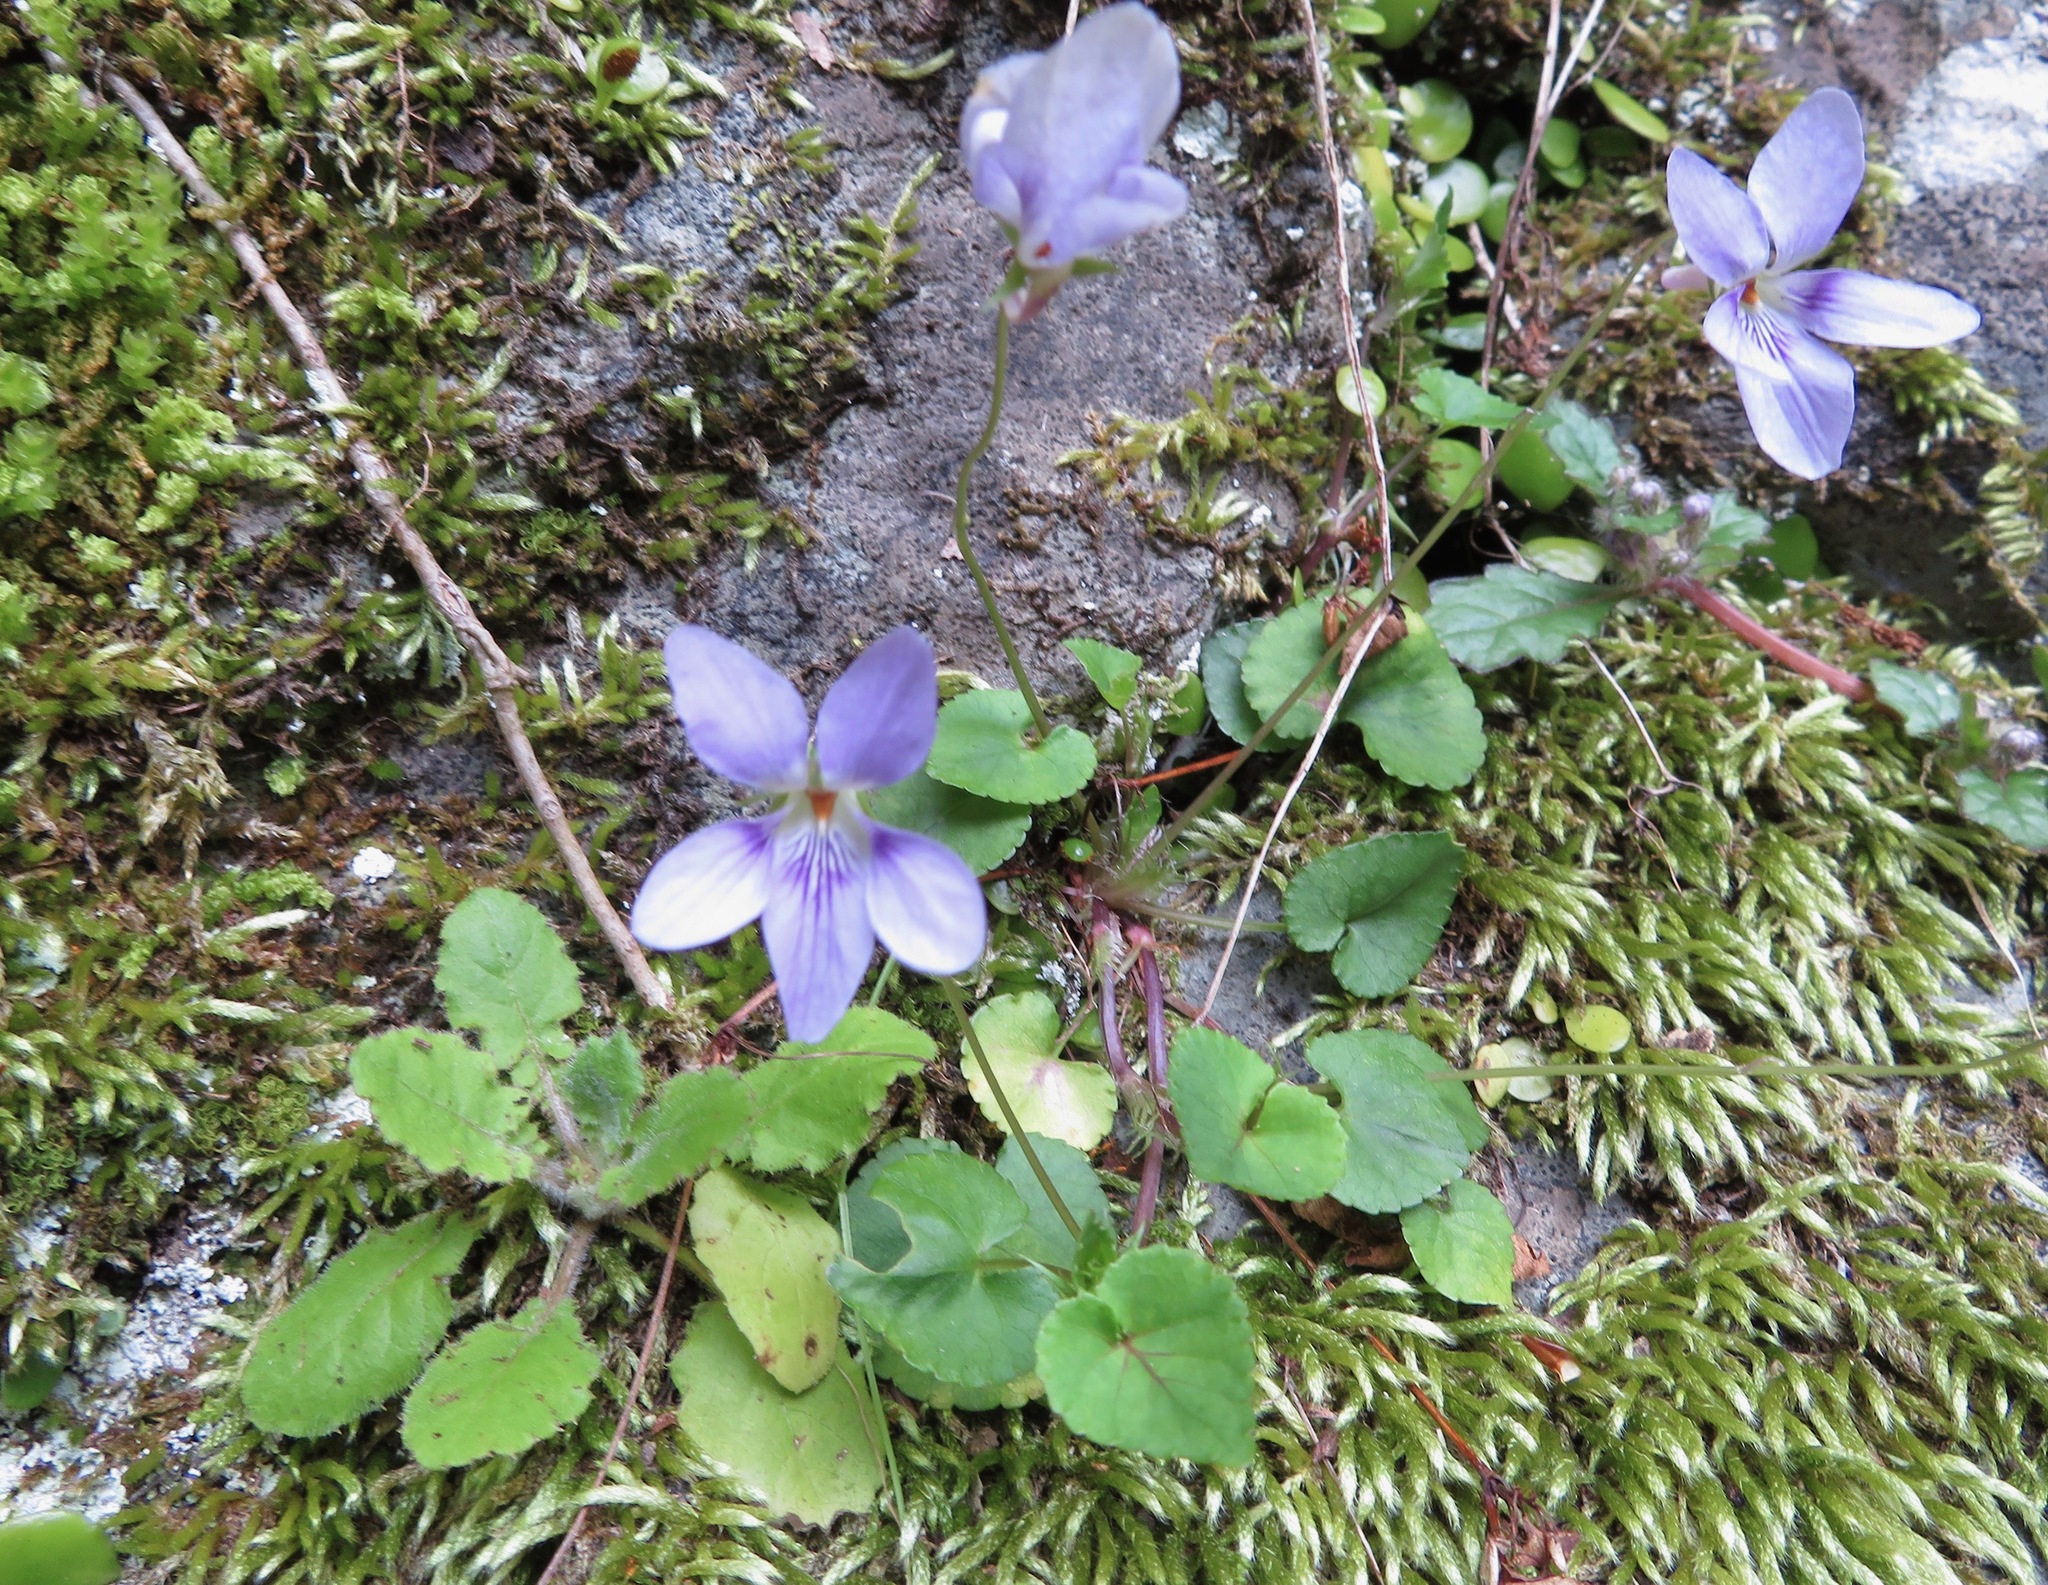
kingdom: Plantae
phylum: Tracheophyta
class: Magnoliopsida
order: Malpighiales
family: Violaceae
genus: Viola
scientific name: Viola grypoceras
